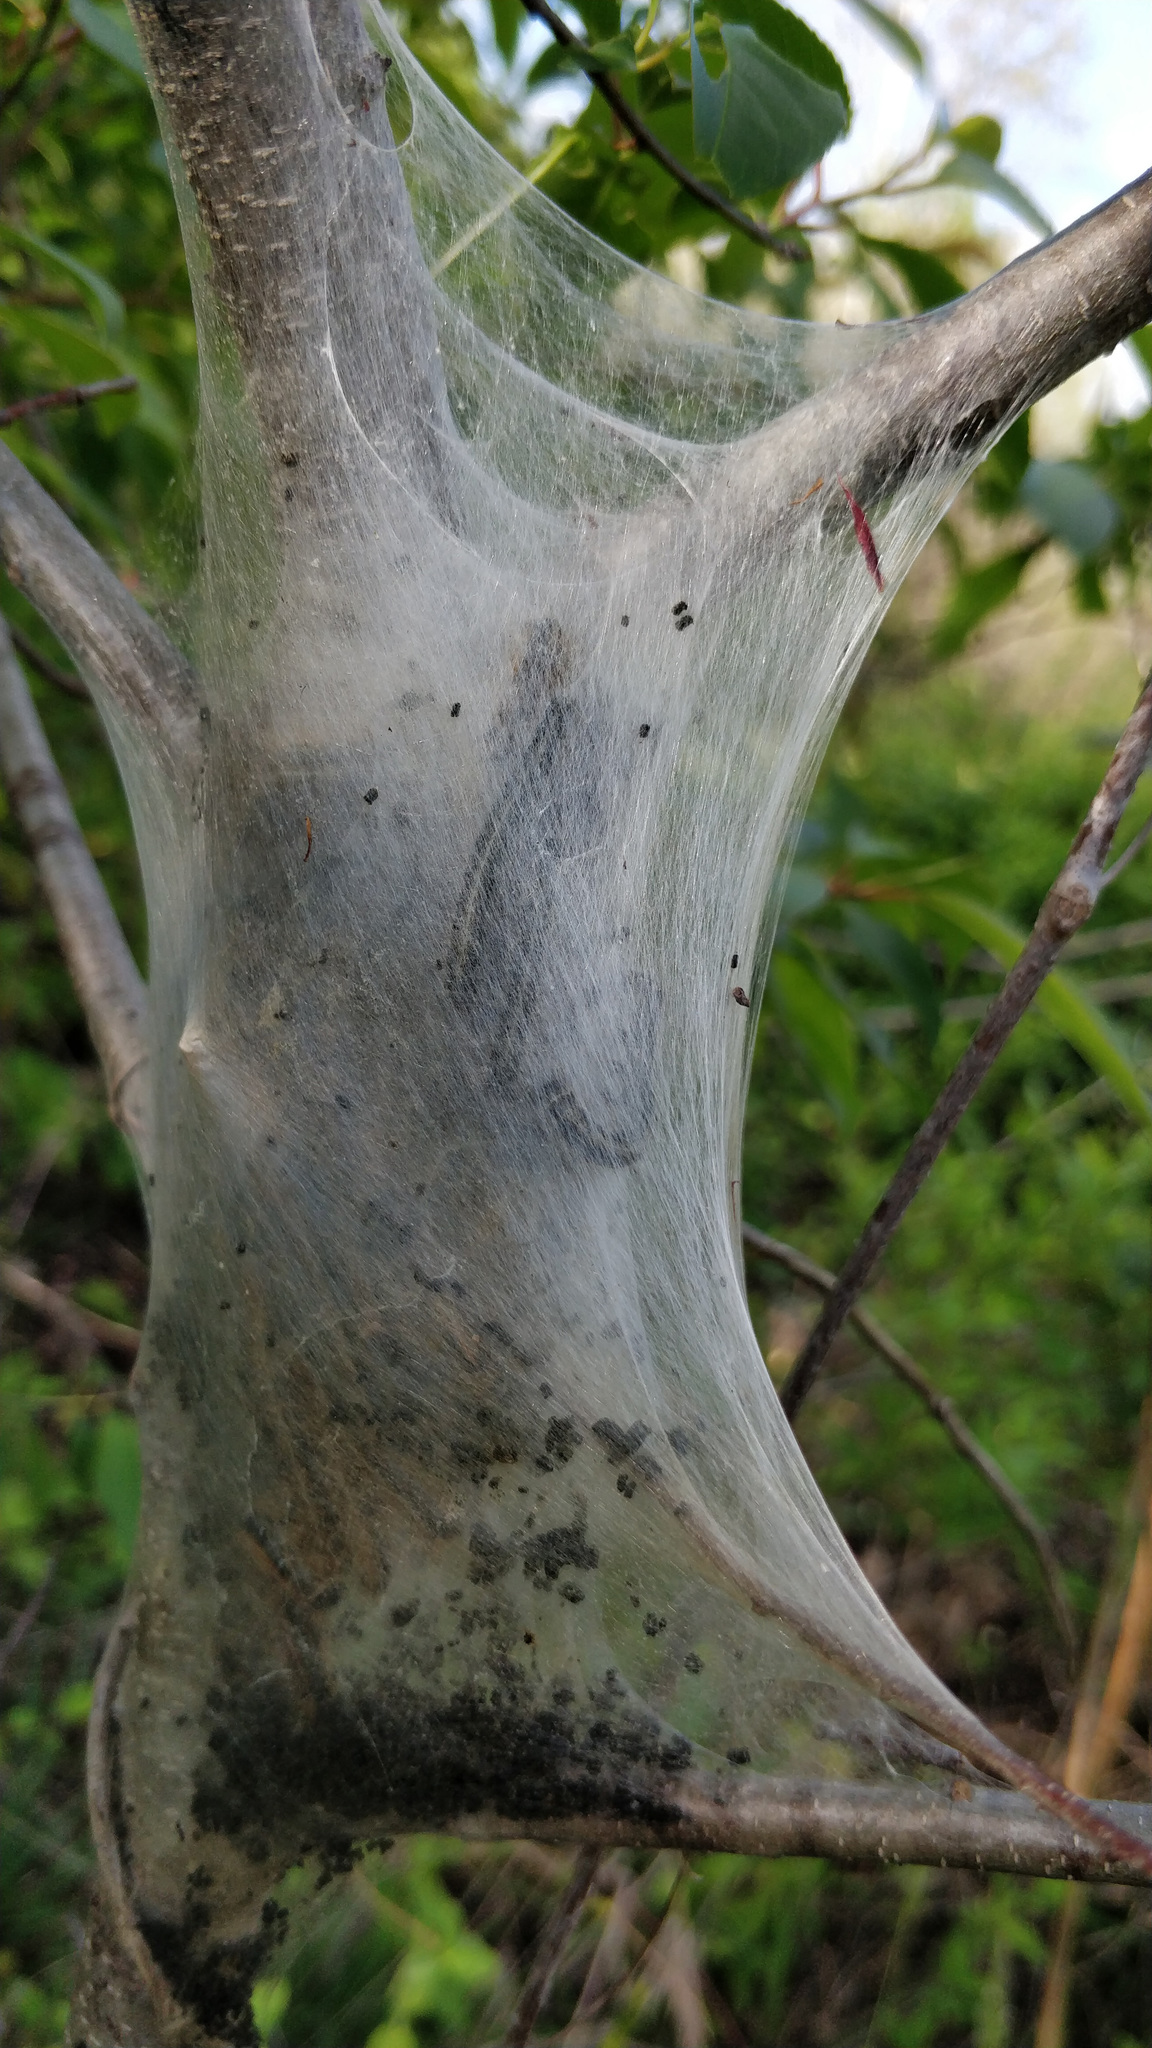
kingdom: Animalia
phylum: Arthropoda
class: Insecta
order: Lepidoptera
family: Lasiocampidae
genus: Malacosoma
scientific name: Malacosoma americana
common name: Eastern tent caterpillar moth
